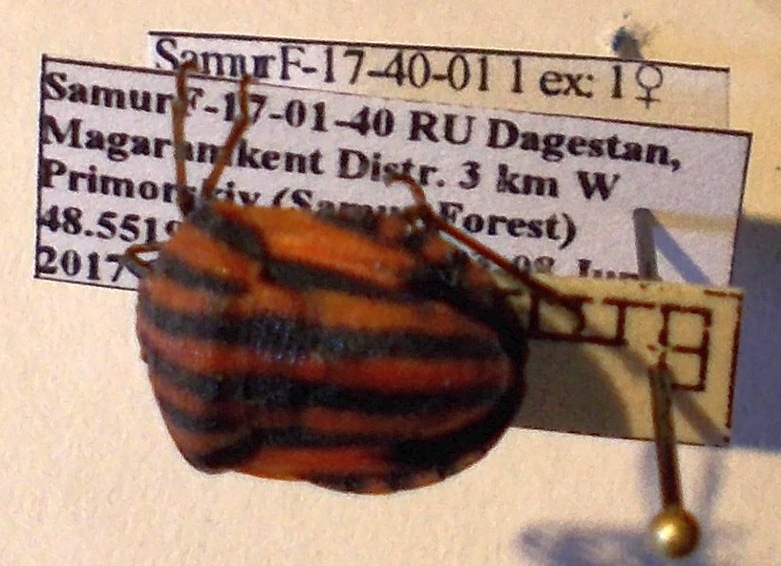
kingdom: Animalia
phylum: Arthropoda
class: Insecta
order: Hemiptera
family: Pentatomidae
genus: Graphosoma
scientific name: Graphosoma italicum
